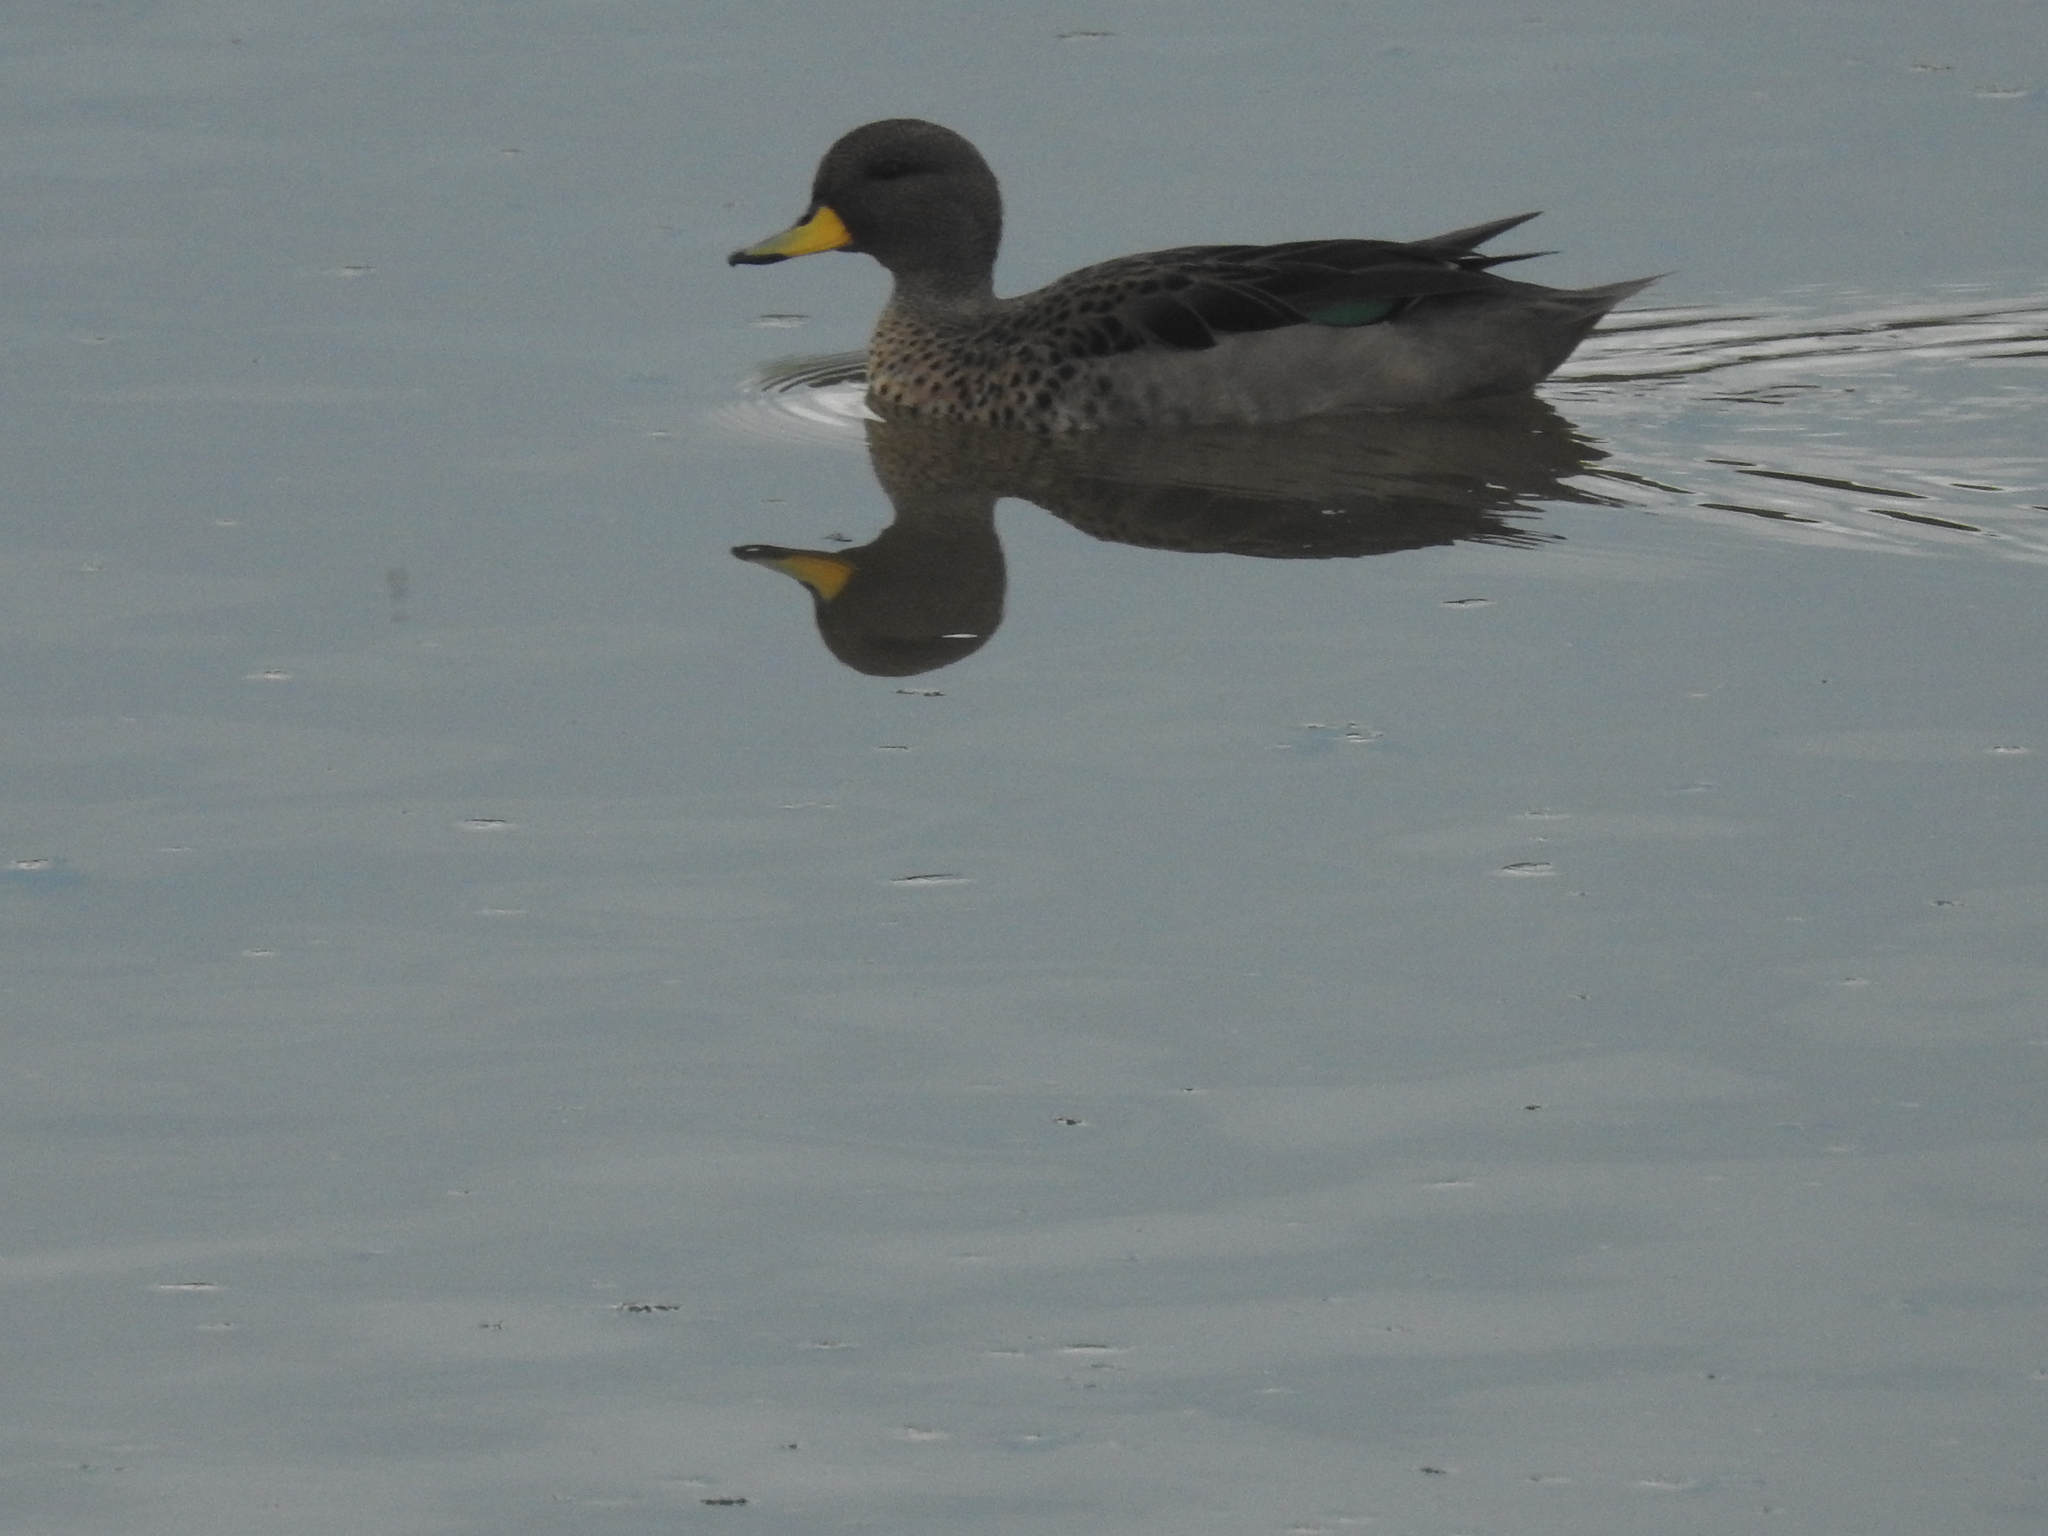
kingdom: Animalia
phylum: Chordata
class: Aves
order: Anseriformes
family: Anatidae
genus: Anas
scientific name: Anas flavirostris
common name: Yellow-billed teal
